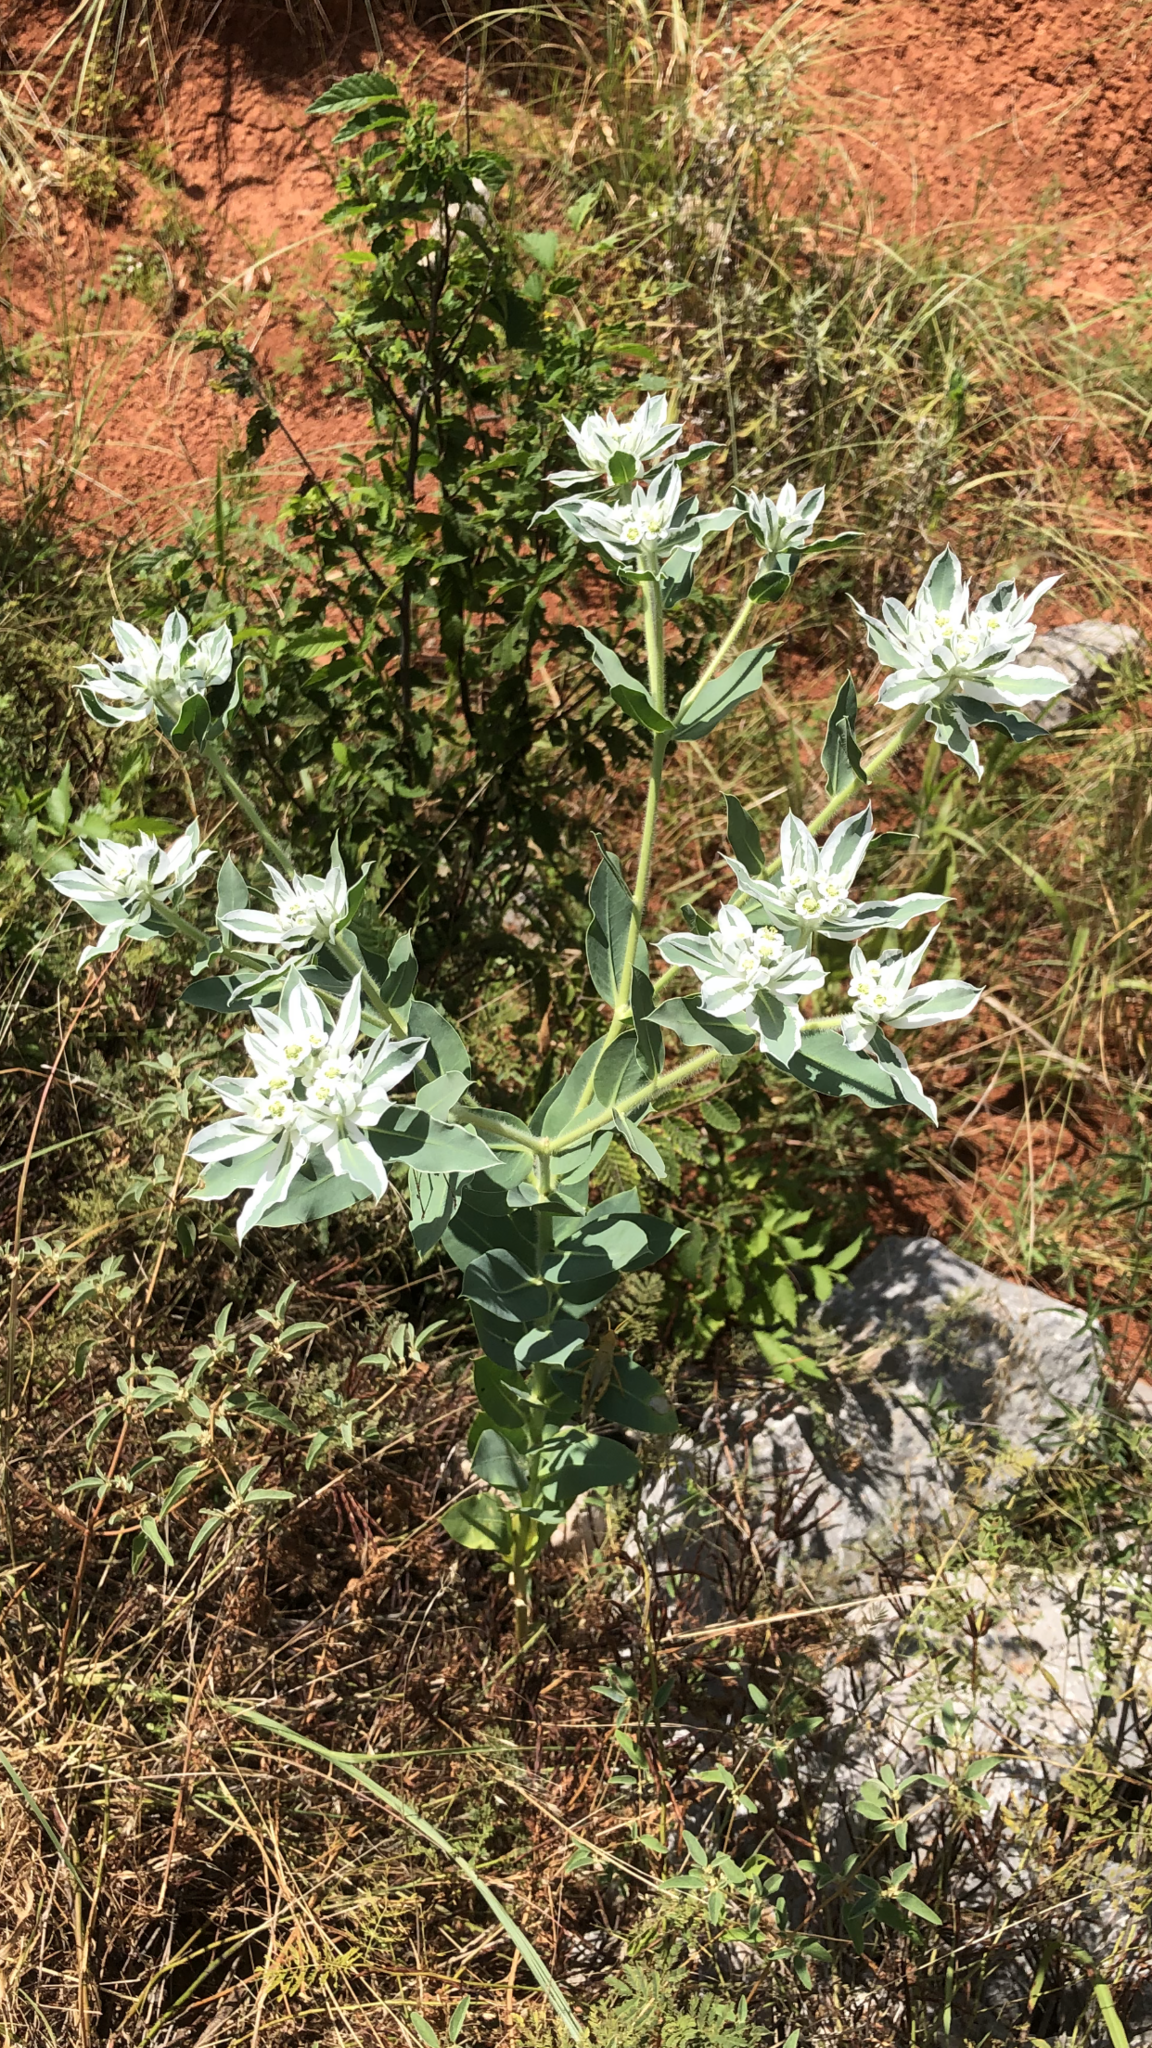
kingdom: Plantae
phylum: Tracheophyta
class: Magnoliopsida
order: Malpighiales
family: Euphorbiaceae
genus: Euphorbia
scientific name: Euphorbia marginata
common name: Ghostweed
